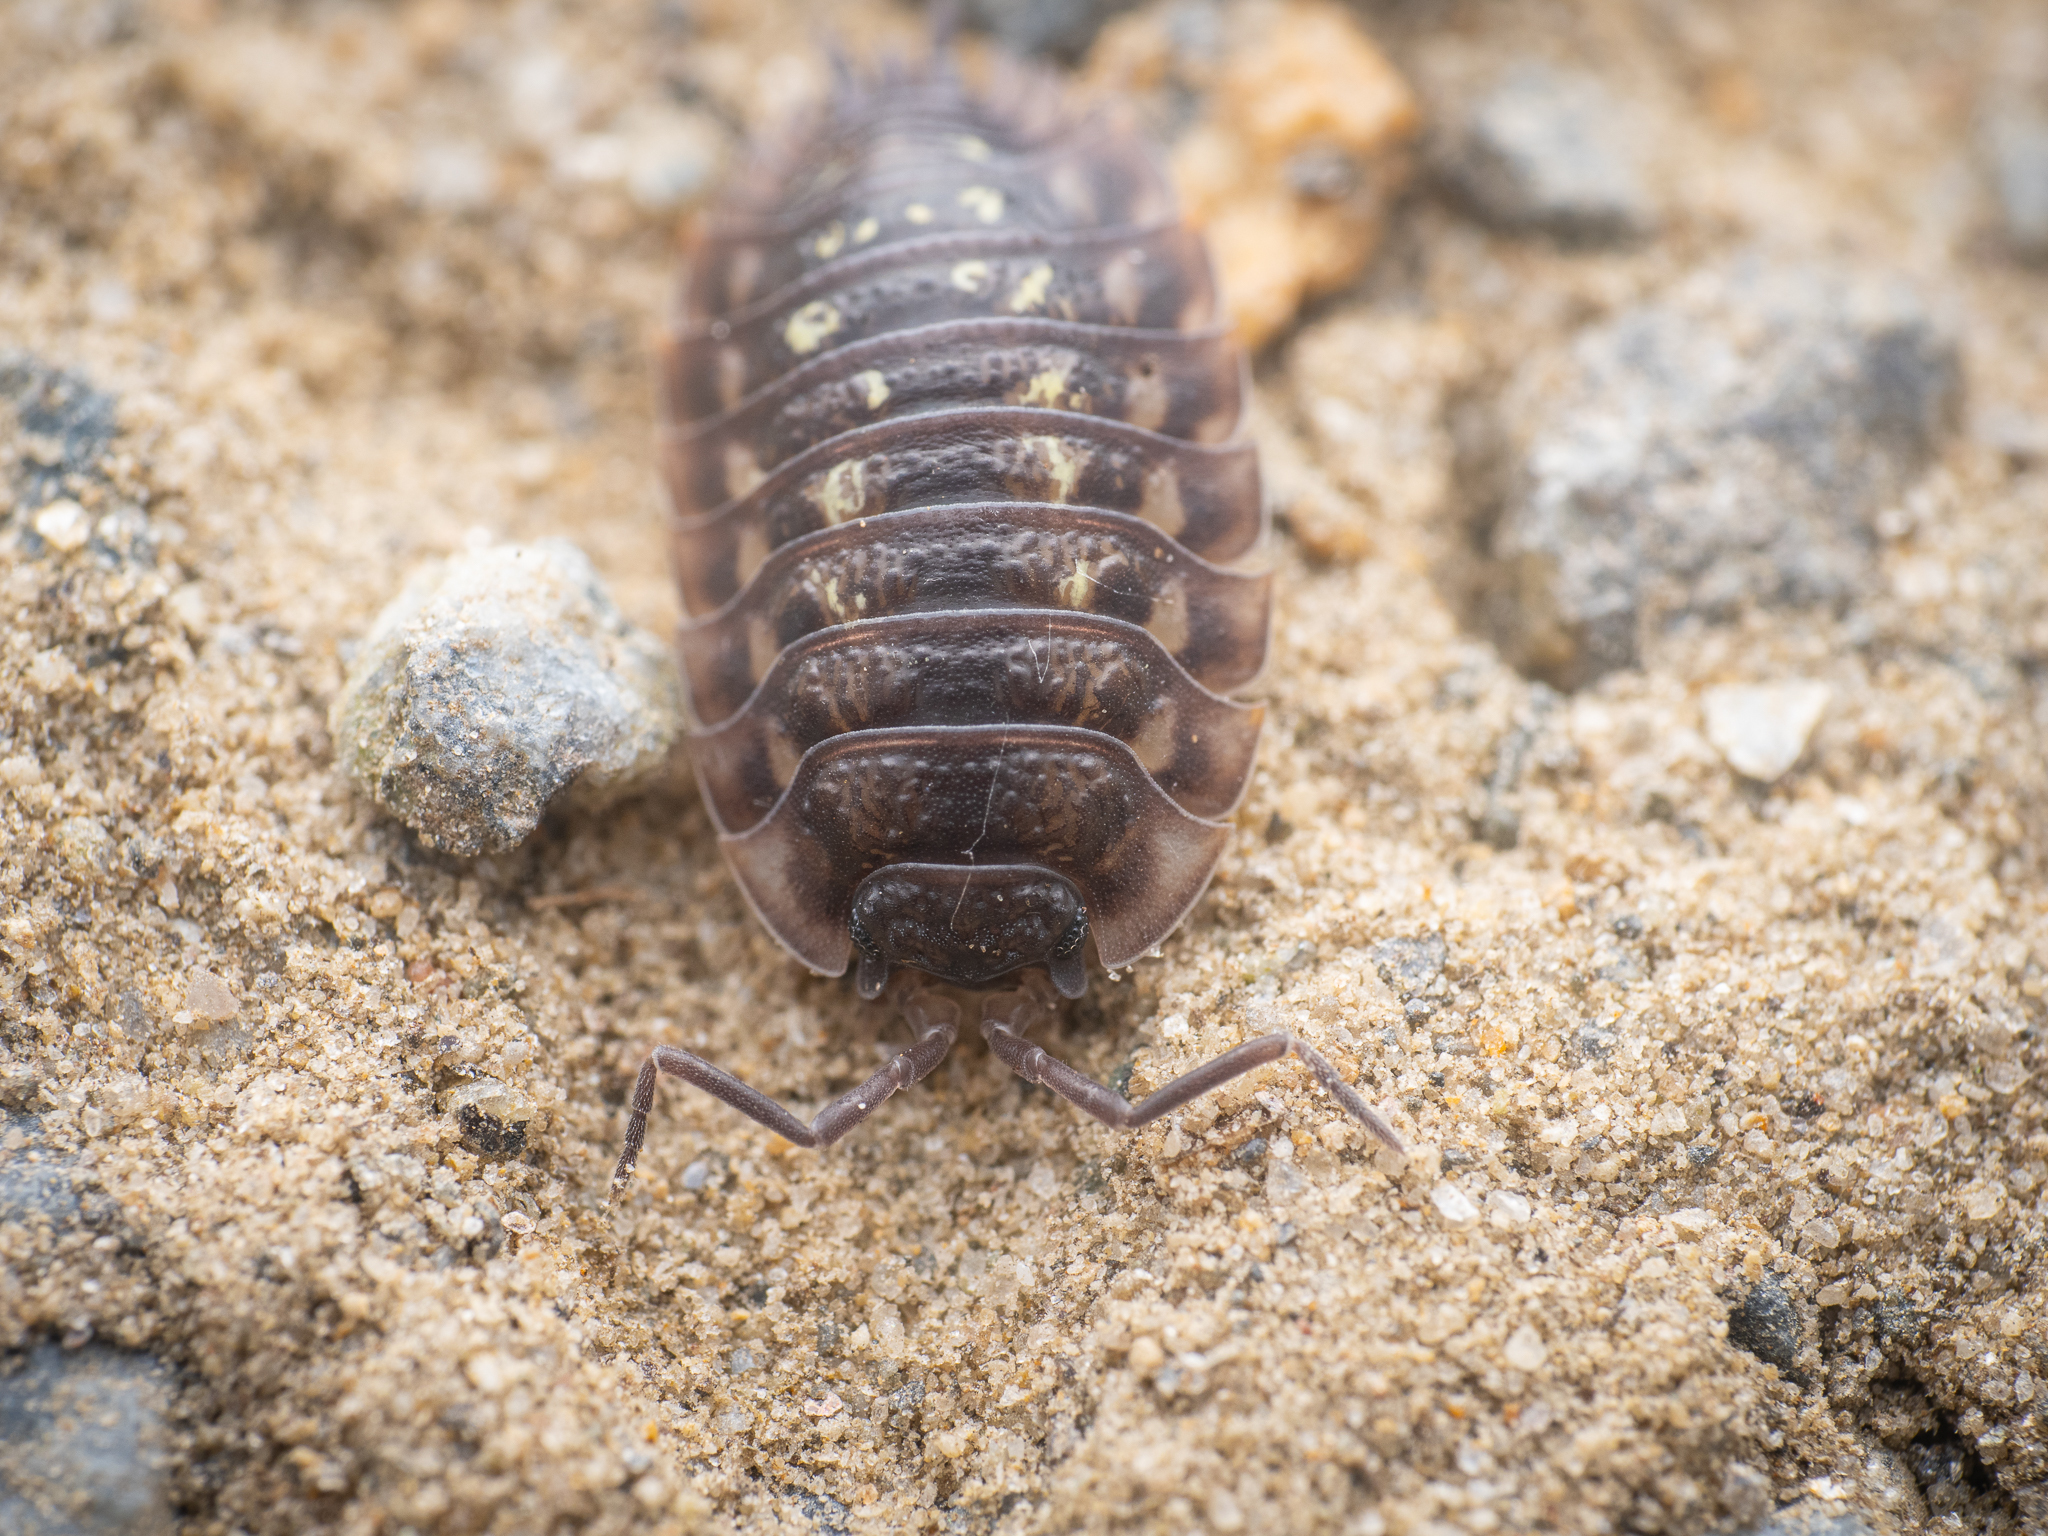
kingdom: Animalia
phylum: Arthropoda
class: Malacostraca
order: Isopoda
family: Oniscidae
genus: Oniscus
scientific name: Oniscus asellus
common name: Common shiny woodlouse
